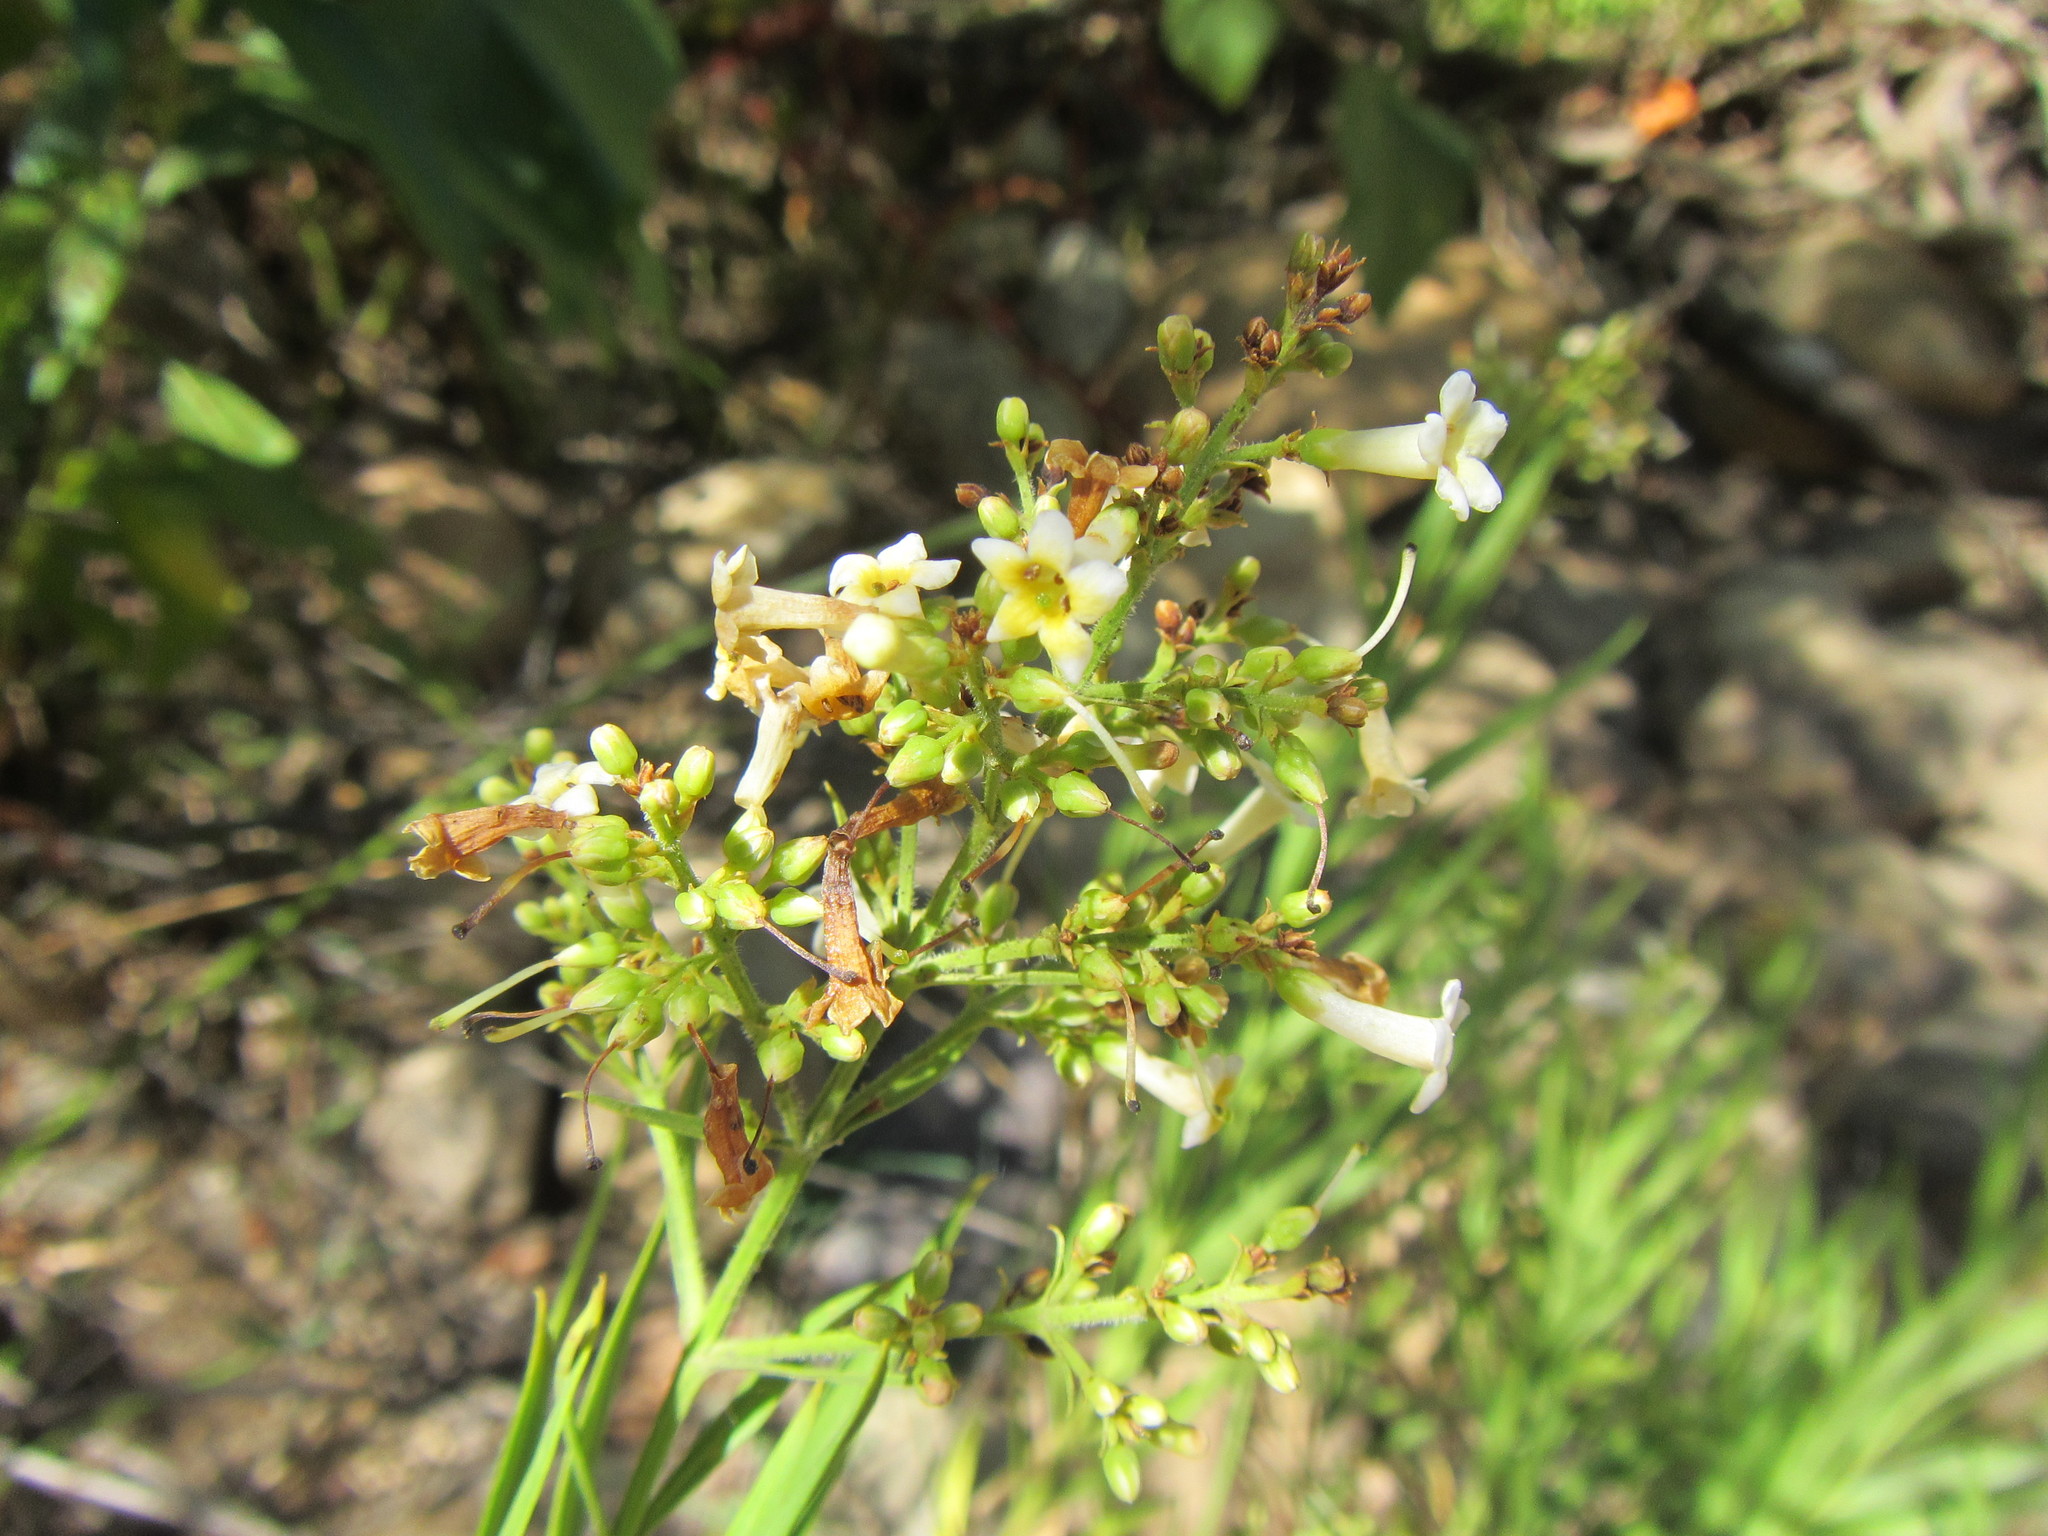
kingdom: Plantae
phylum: Tracheophyta
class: Magnoliopsida
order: Lamiales
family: Scrophulariaceae
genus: Freylinia
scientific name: Freylinia lanceolata
